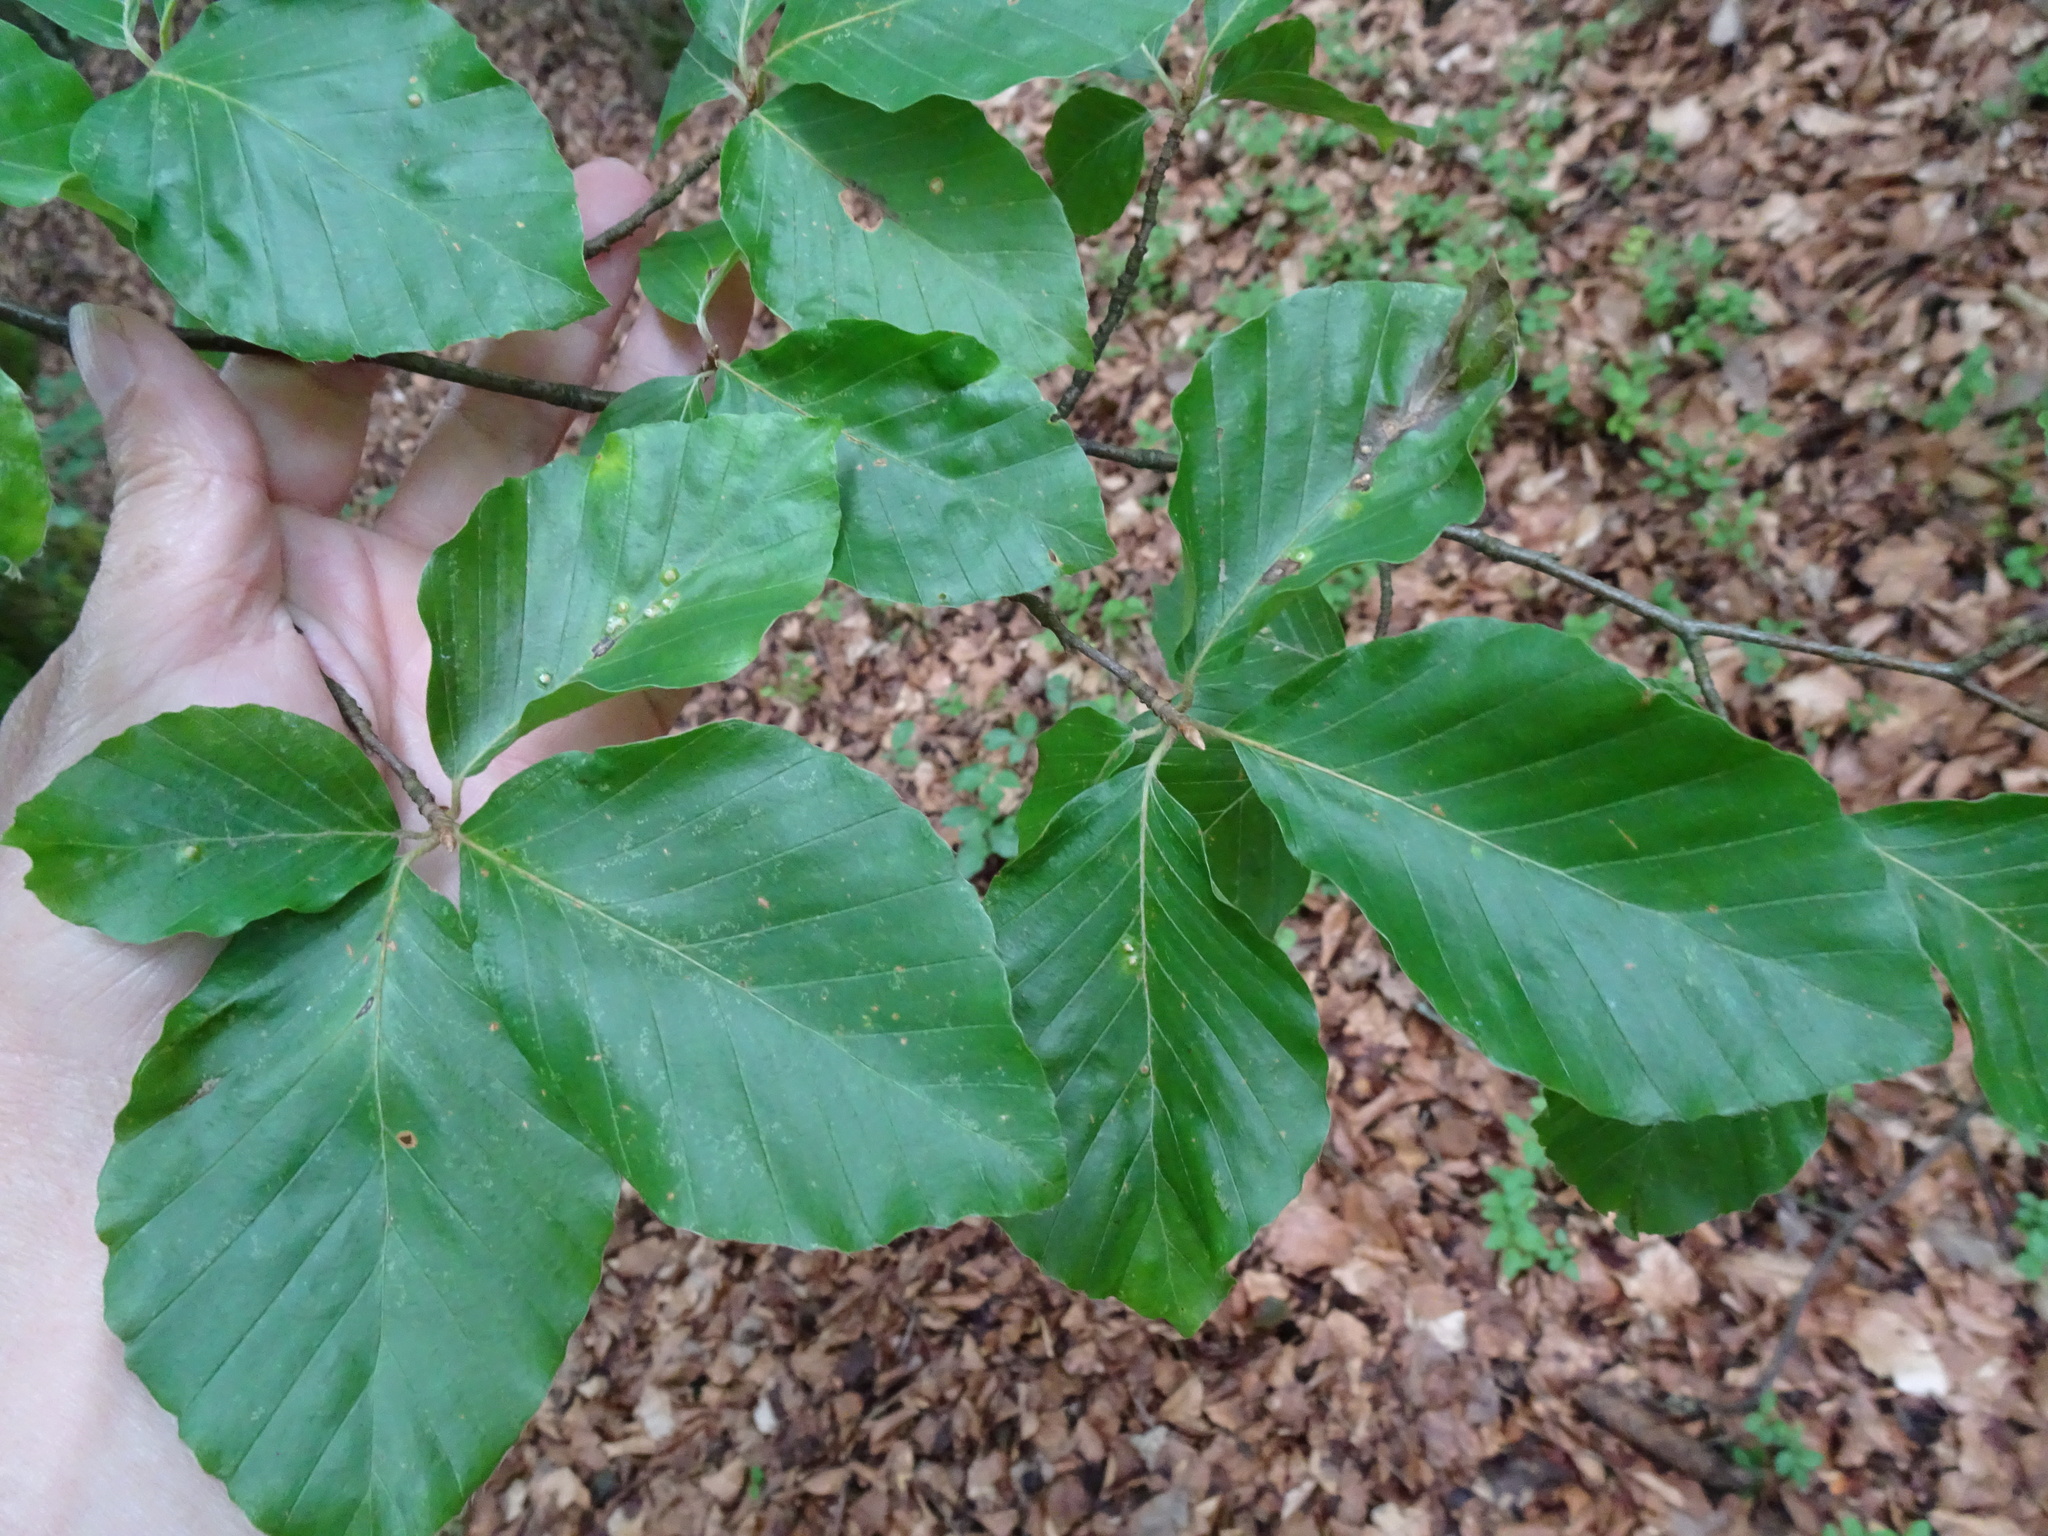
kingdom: Plantae
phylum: Tracheophyta
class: Magnoliopsida
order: Fagales
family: Fagaceae
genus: Fagus
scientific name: Fagus sylvatica
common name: Beech
